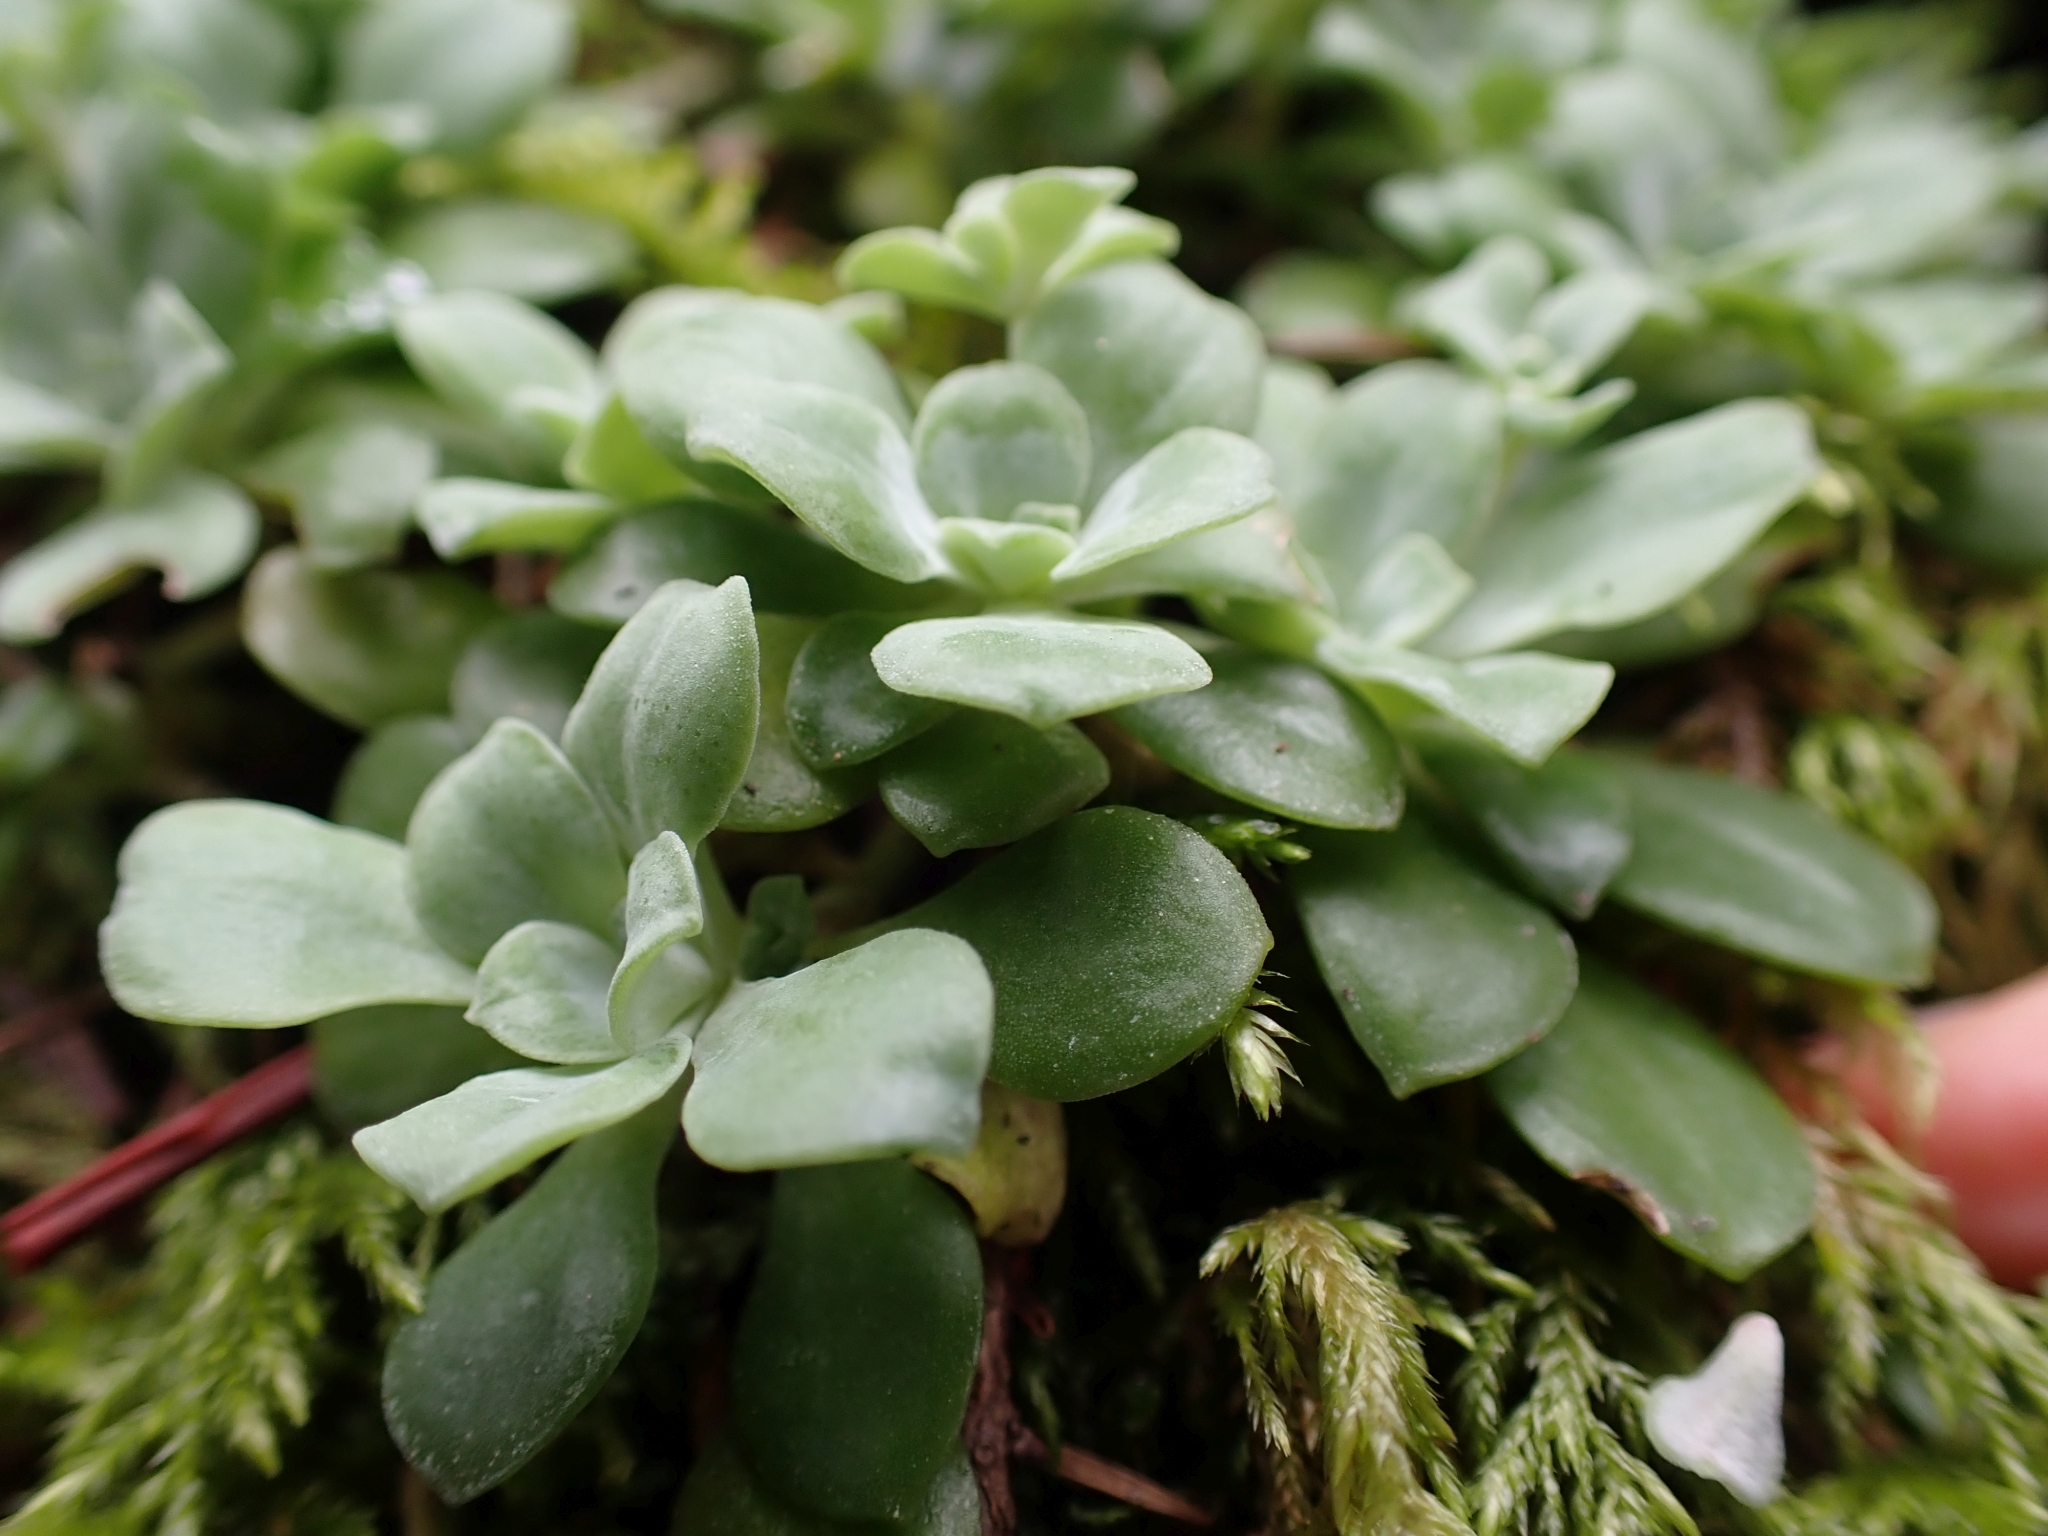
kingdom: Plantae
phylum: Tracheophyta
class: Magnoliopsida
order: Saxifragales
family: Crassulaceae
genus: Sedum
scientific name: Sedum spathulifolium
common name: Colorado stonecrop
